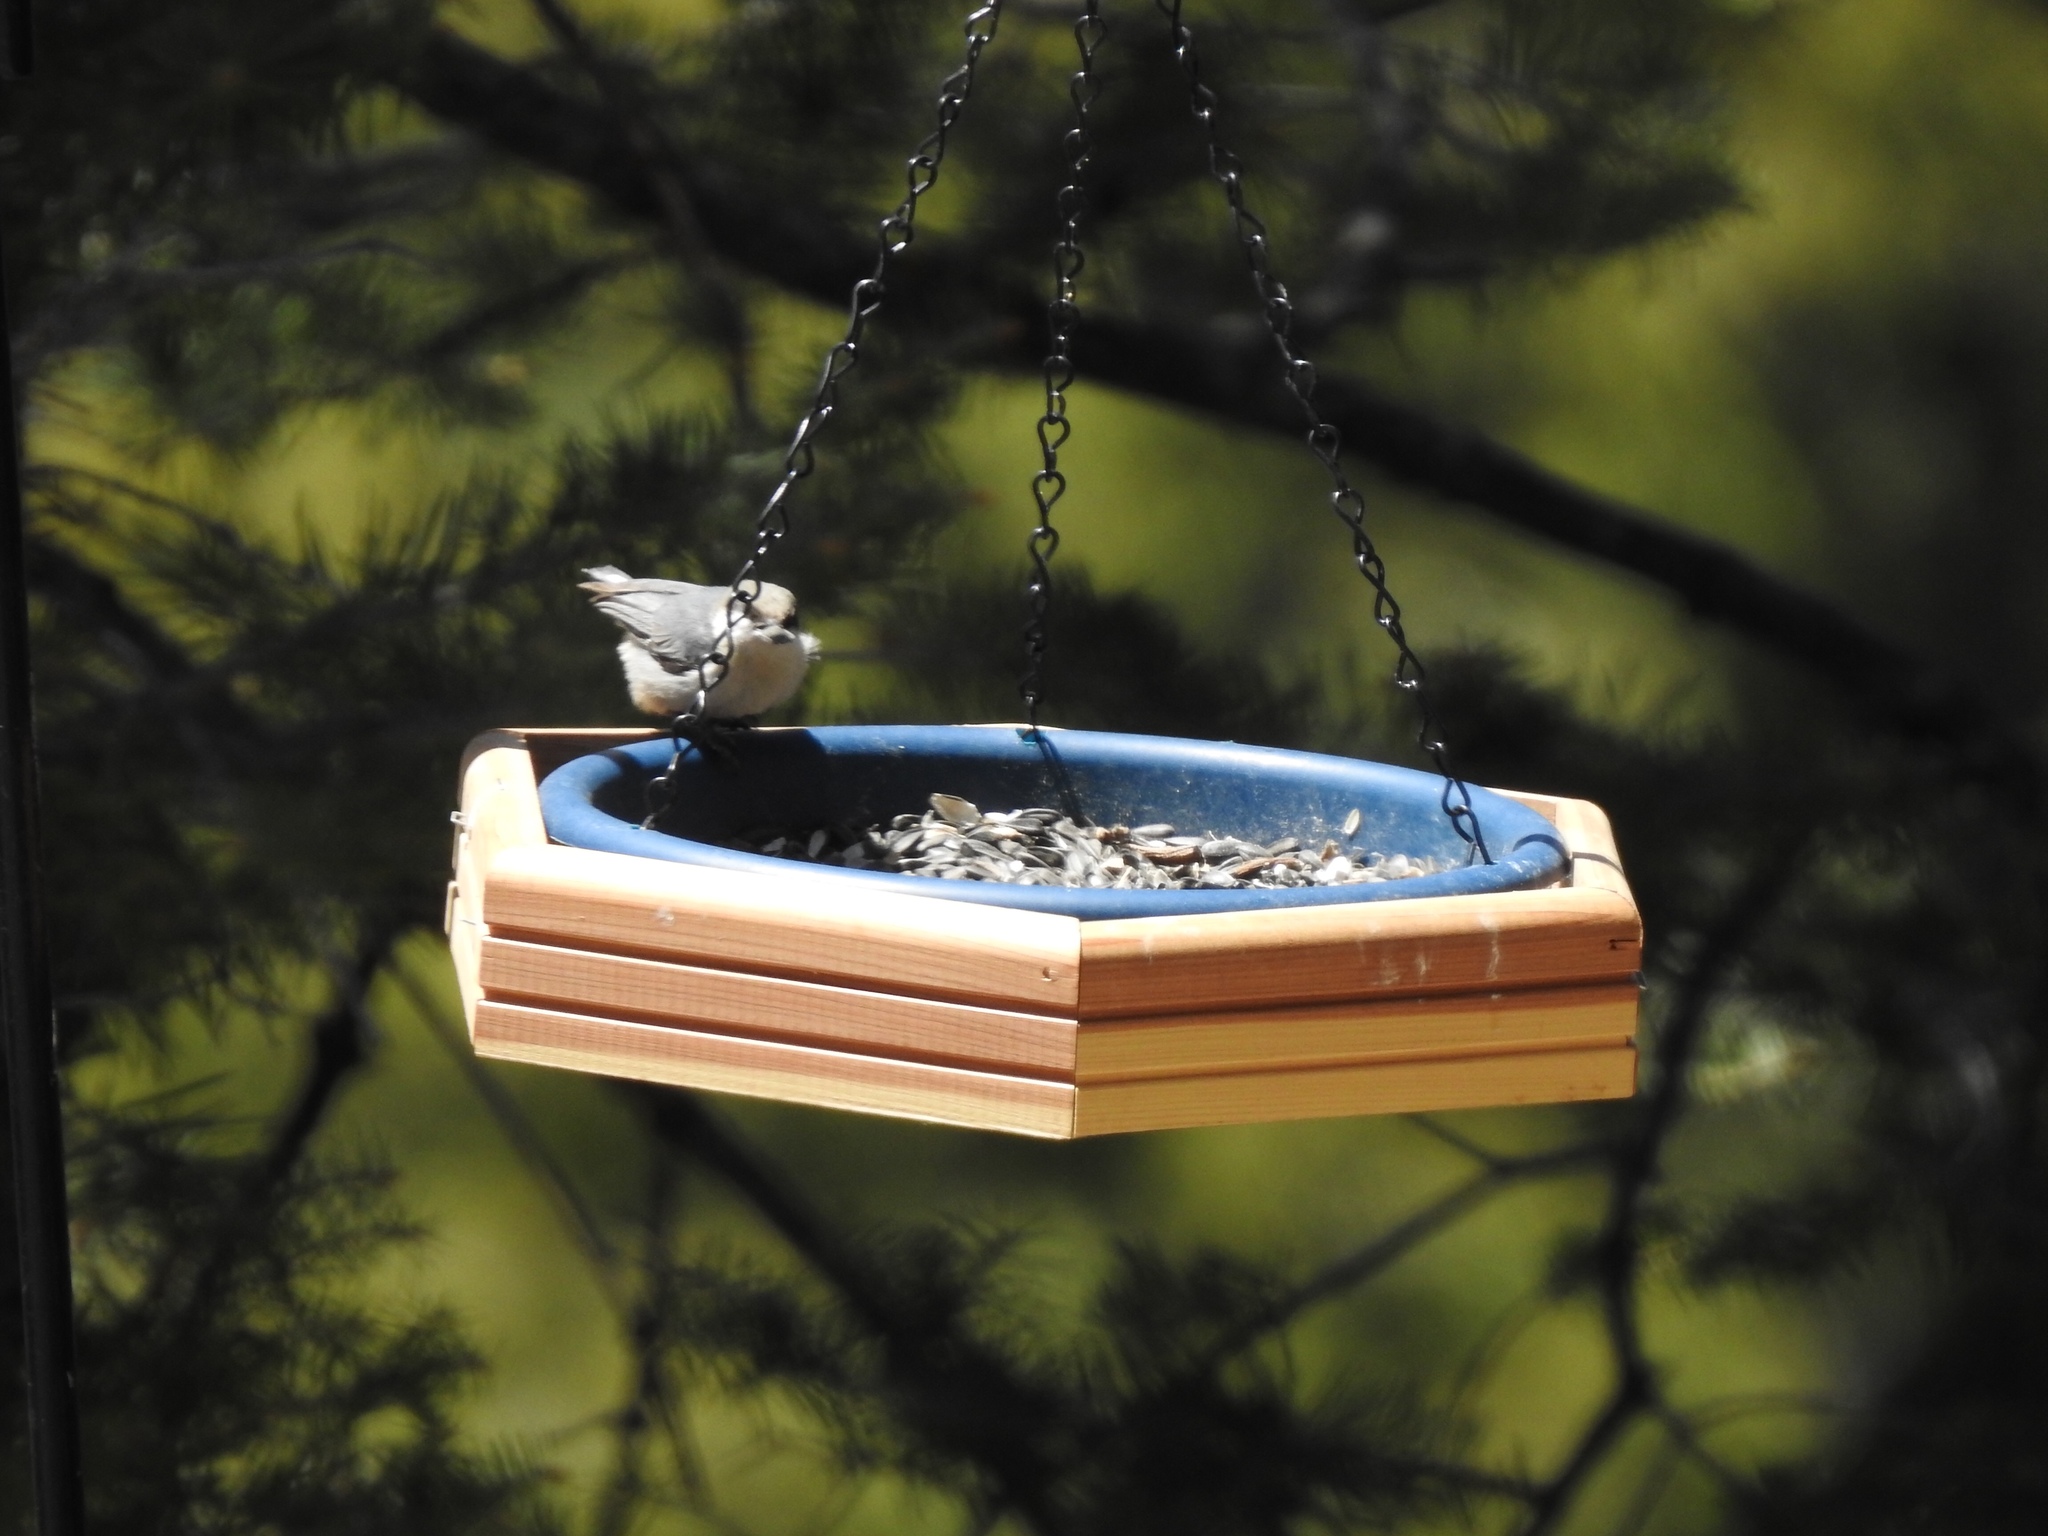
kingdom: Animalia
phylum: Chordata
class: Aves
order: Passeriformes
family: Sittidae
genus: Sitta
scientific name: Sitta pygmaea
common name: Pygmy nuthatch
